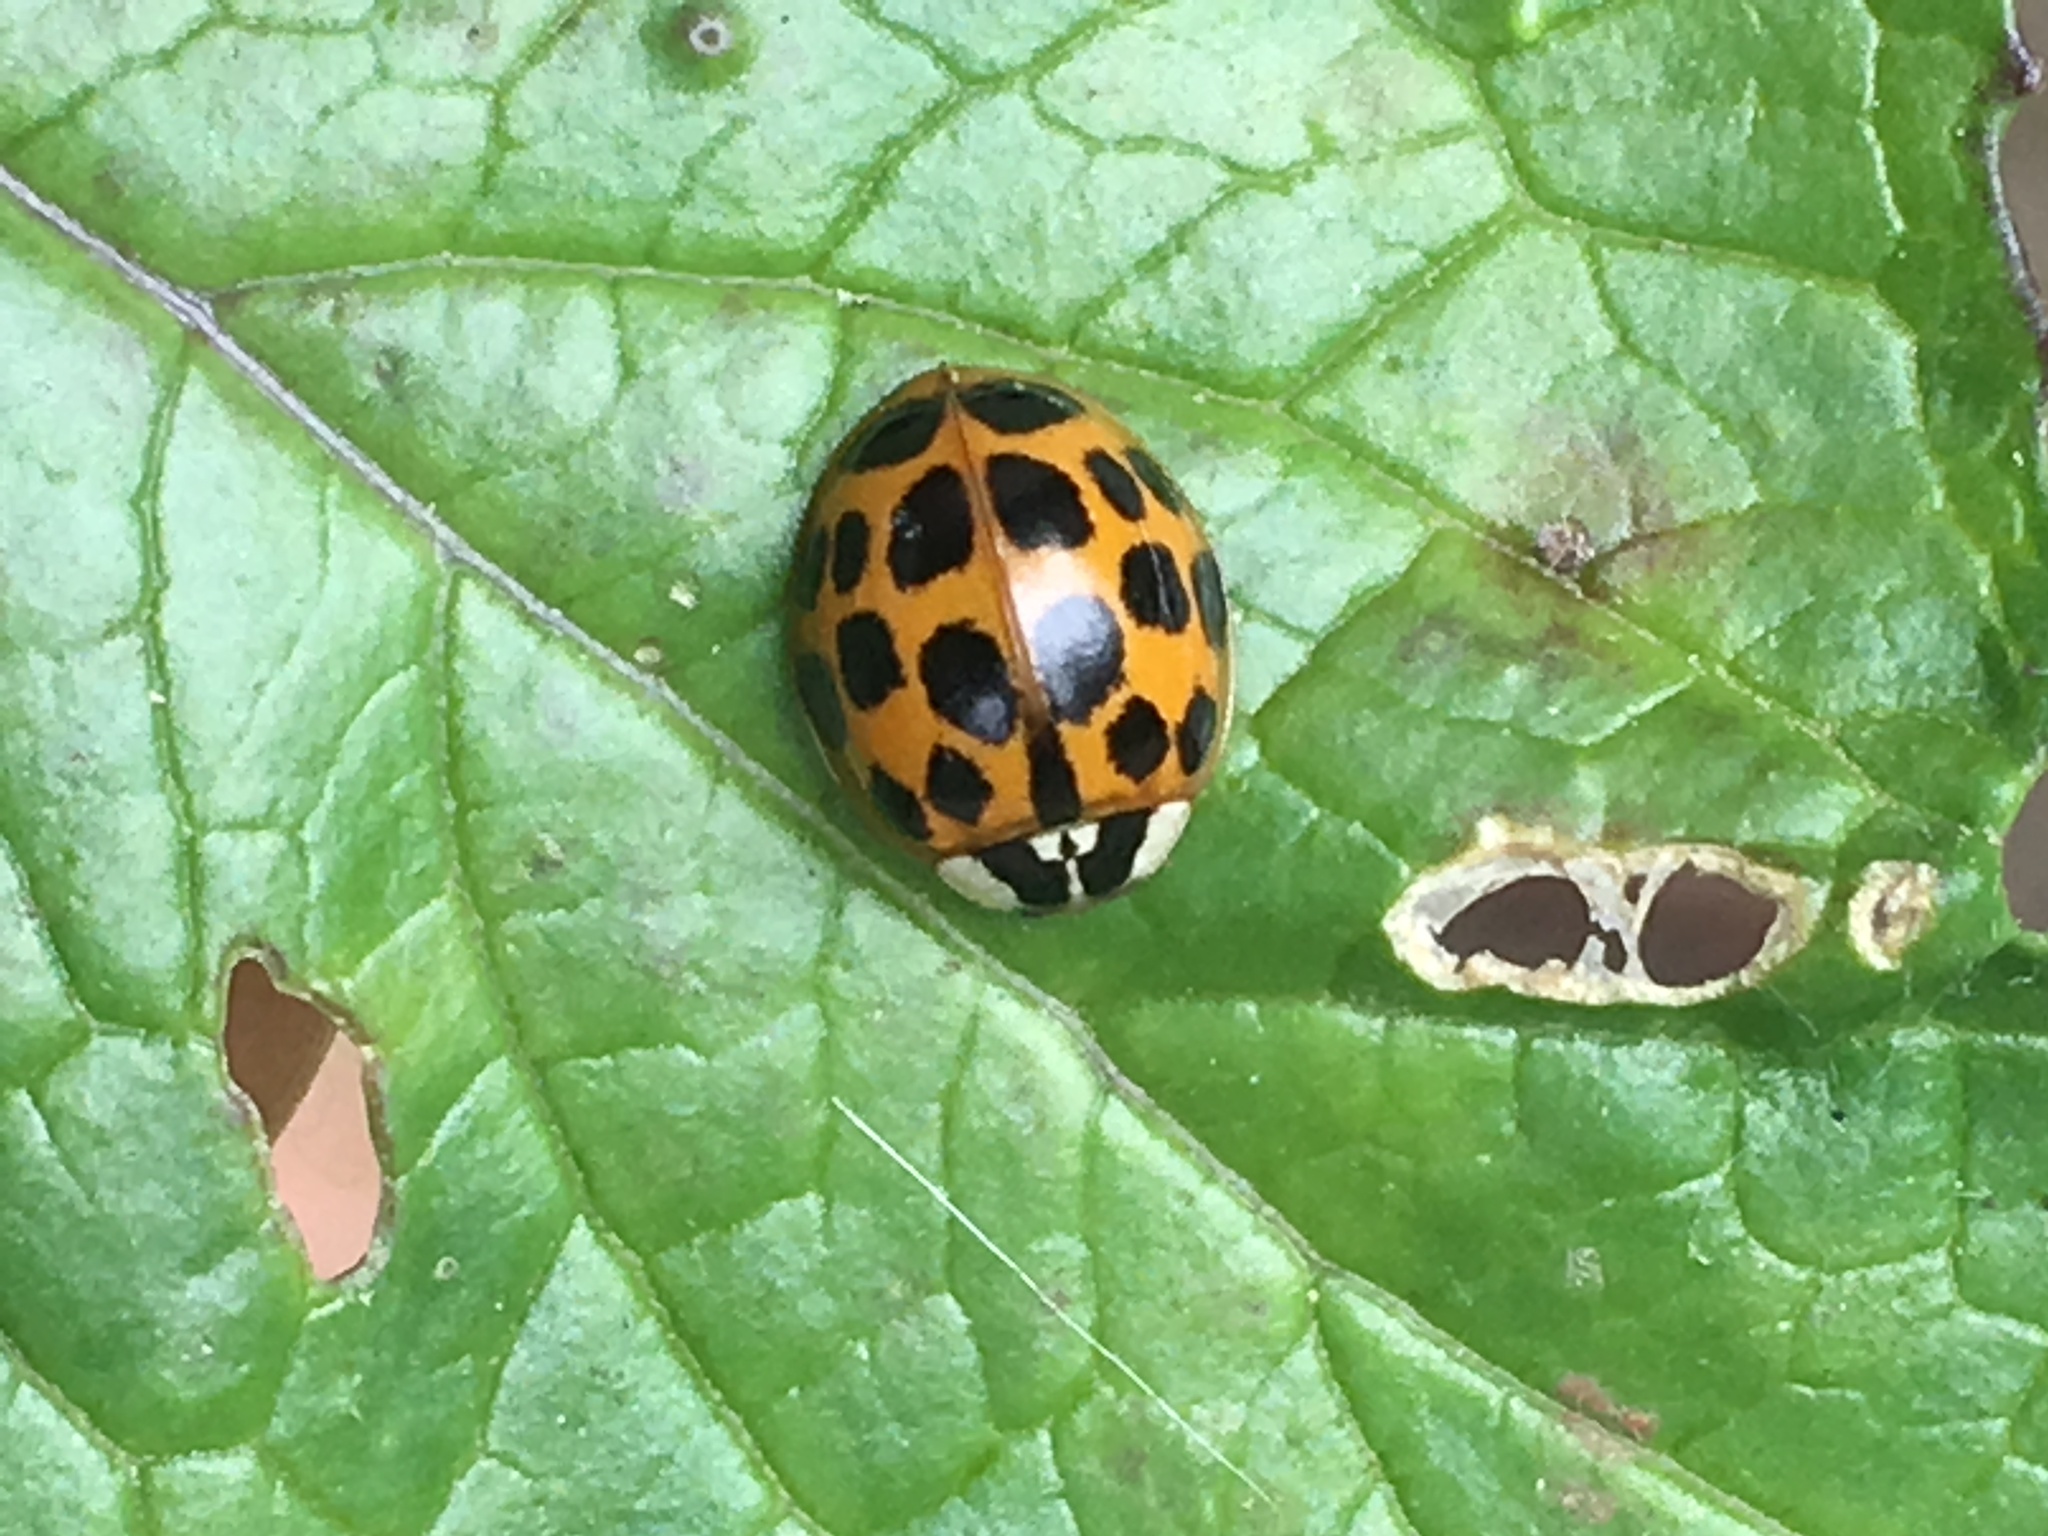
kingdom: Animalia
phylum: Arthropoda
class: Insecta
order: Coleoptera
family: Coccinellidae
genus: Harmonia
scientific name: Harmonia axyridis
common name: Harlequin ladybird
